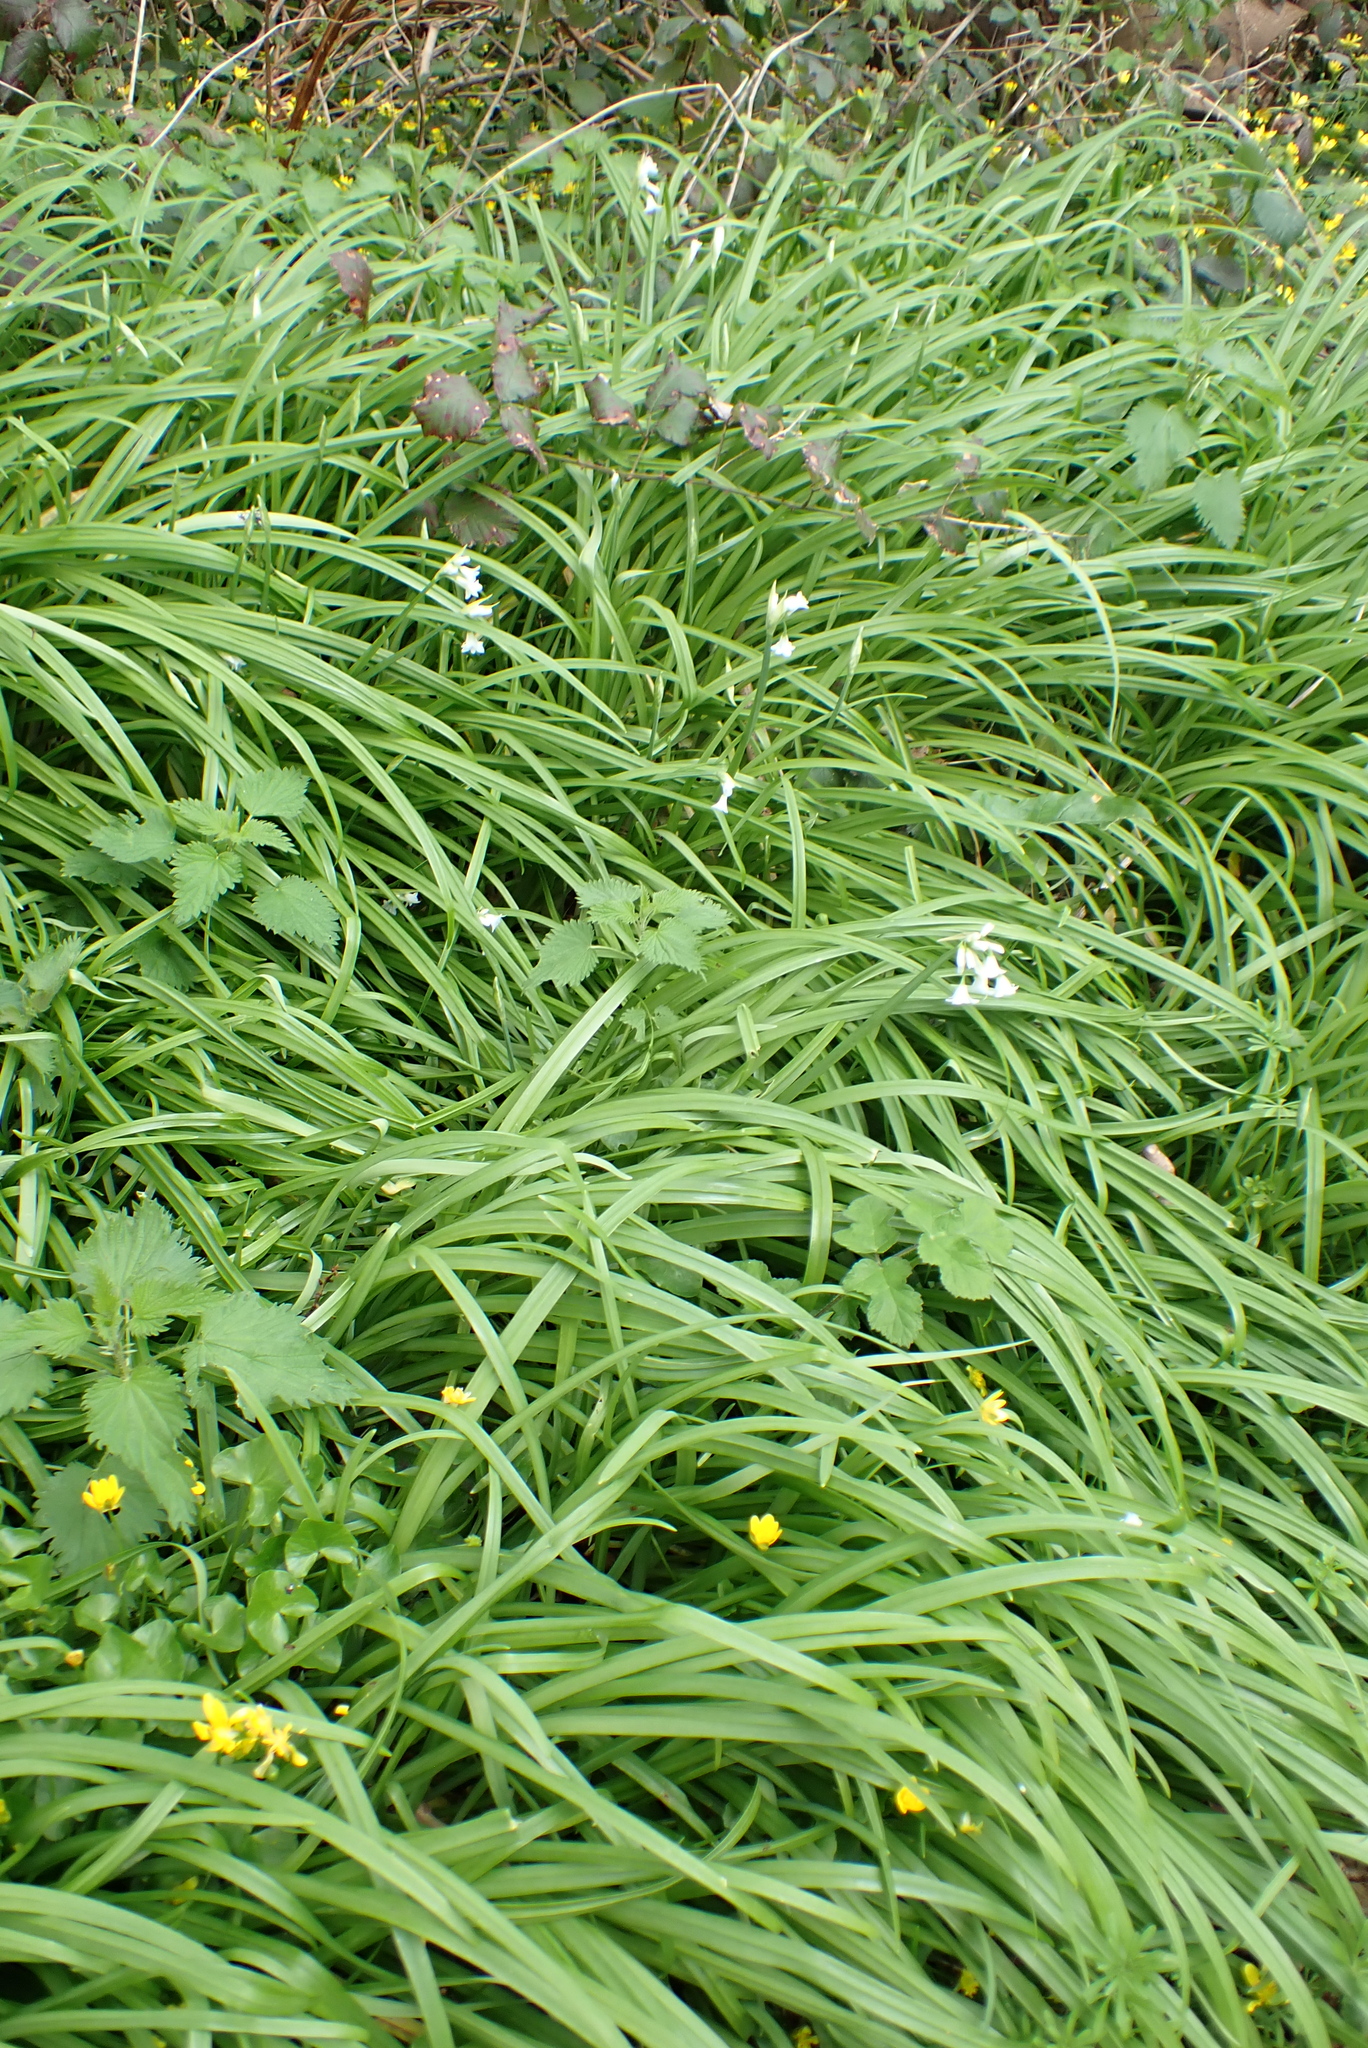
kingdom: Plantae
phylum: Tracheophyta
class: Liliopsida
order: Asparagales
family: Amaryllidaceae
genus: Allium
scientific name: Allium triquetrum
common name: Three-cornered garlic
